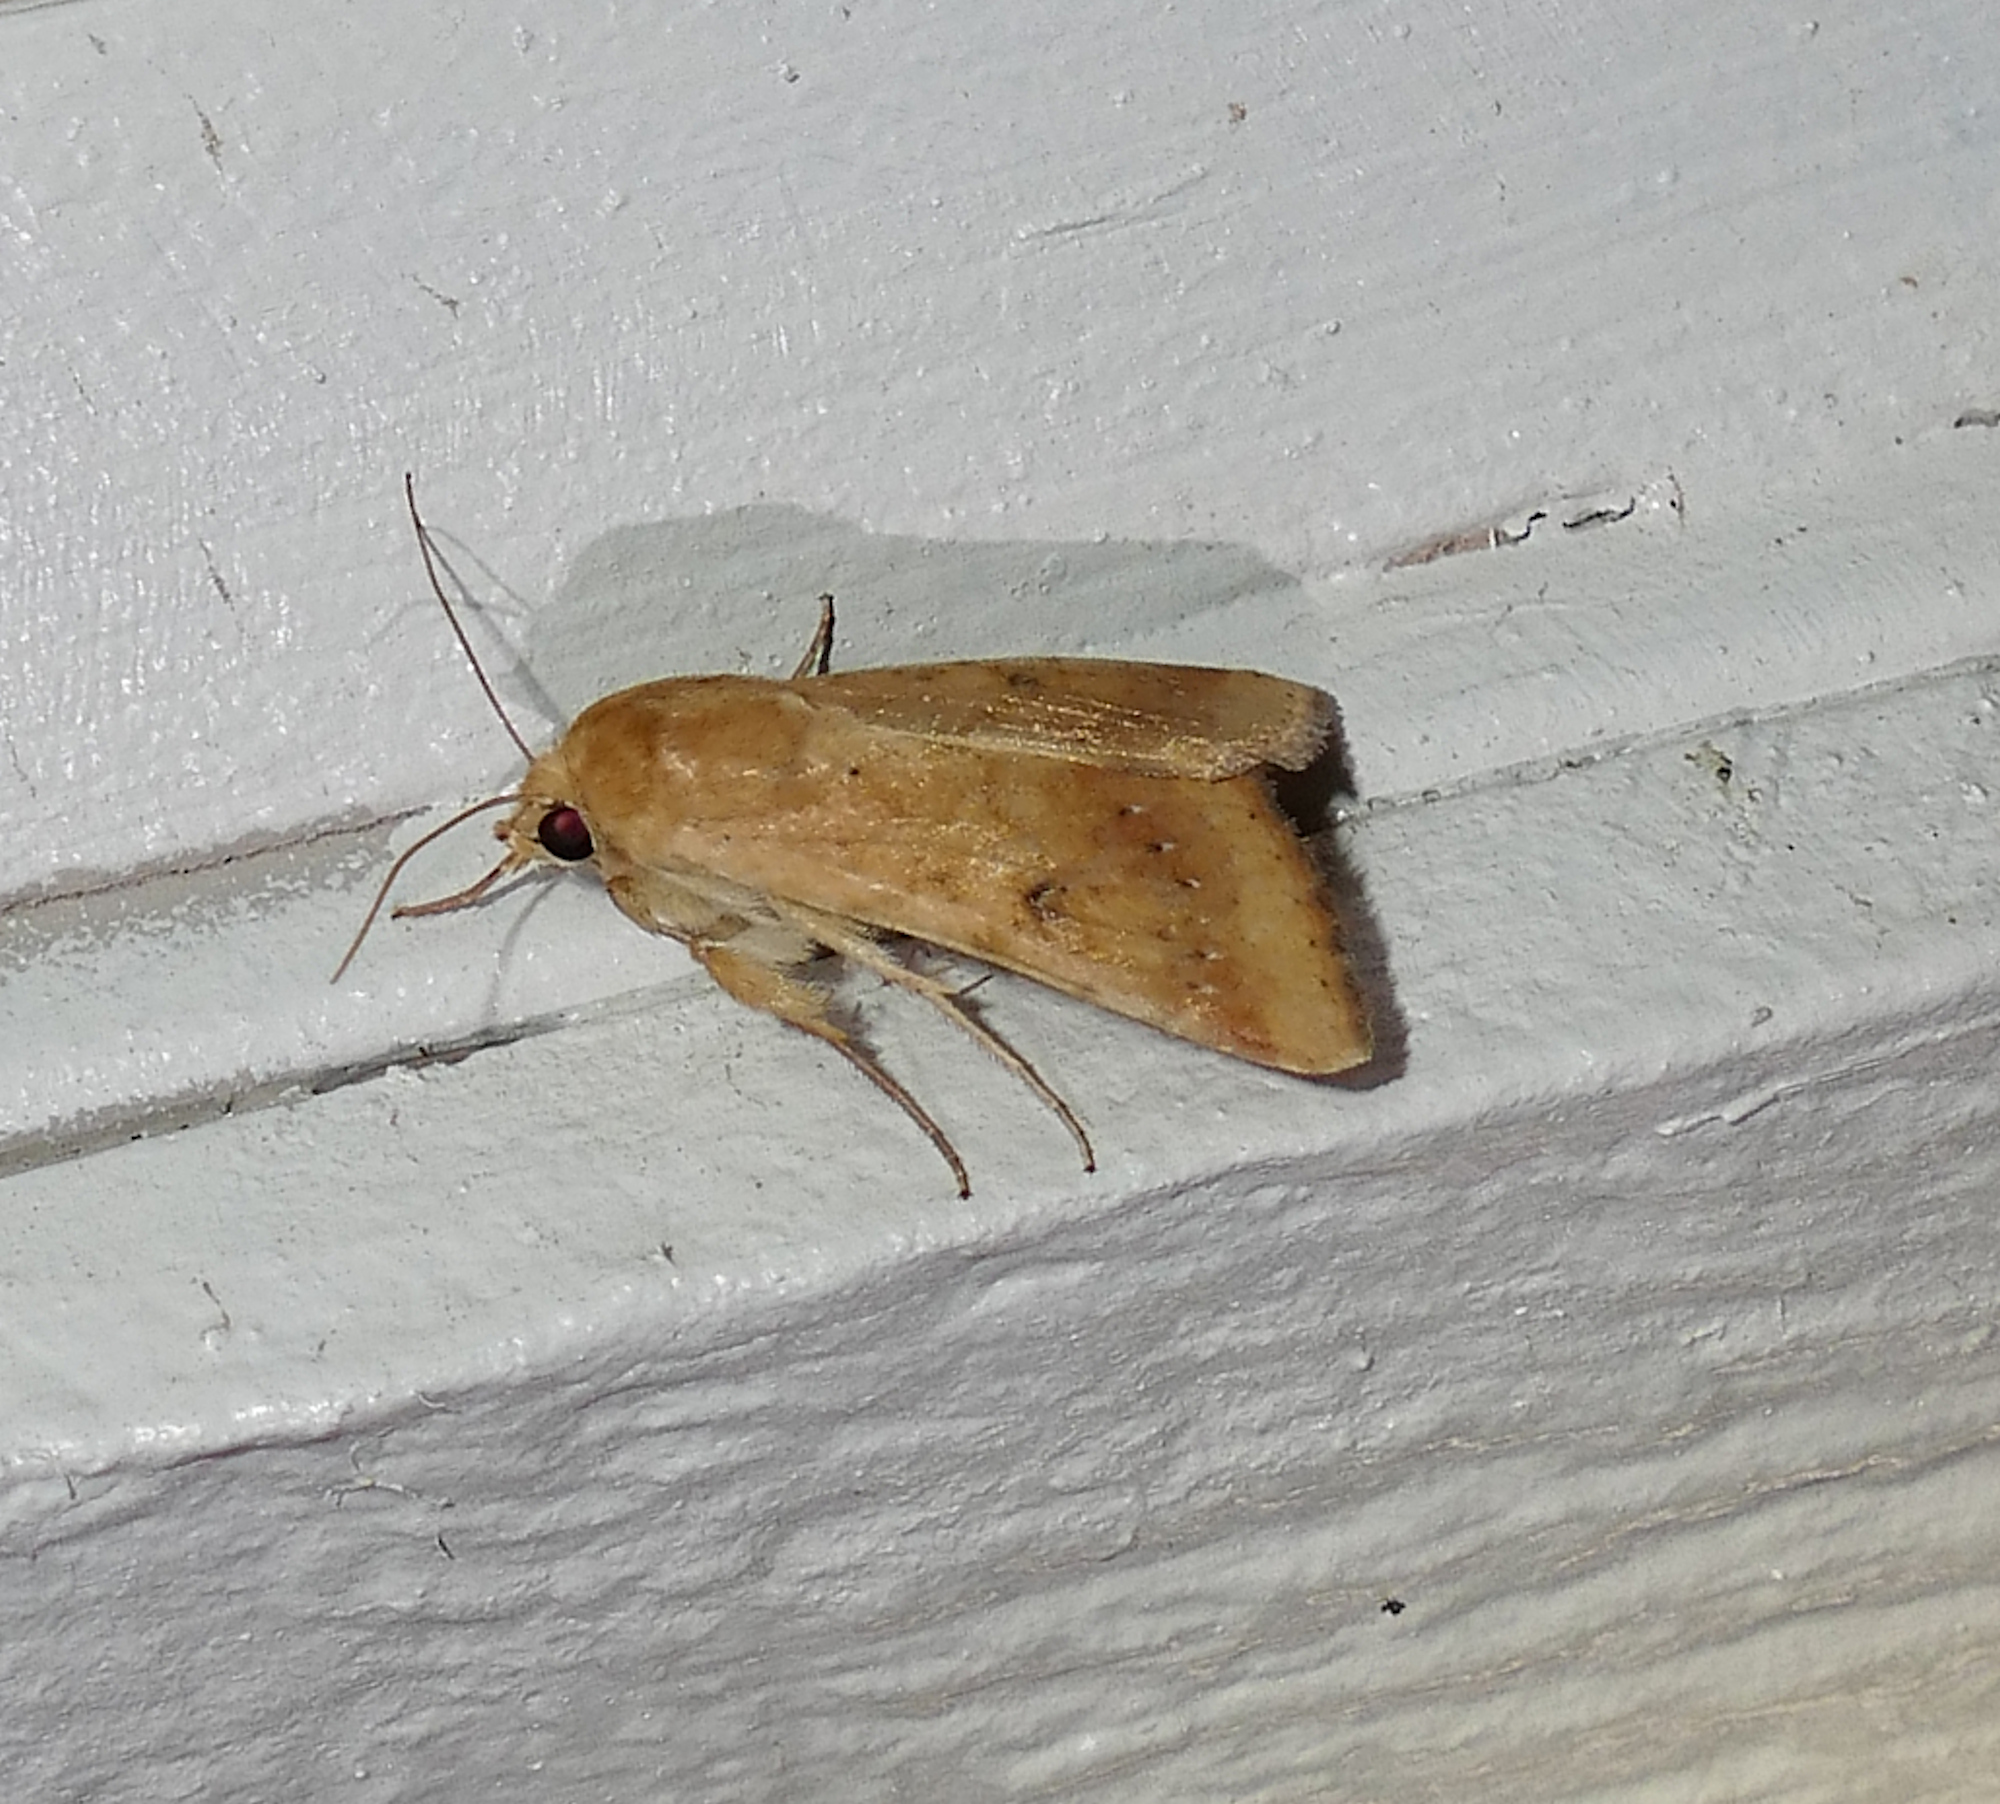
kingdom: Animalia
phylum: Arthropoda
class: Insecta
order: Lepidoptera
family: Noctuidae
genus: Helicoverpa
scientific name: Helicoverpa zea
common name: Bollworm
